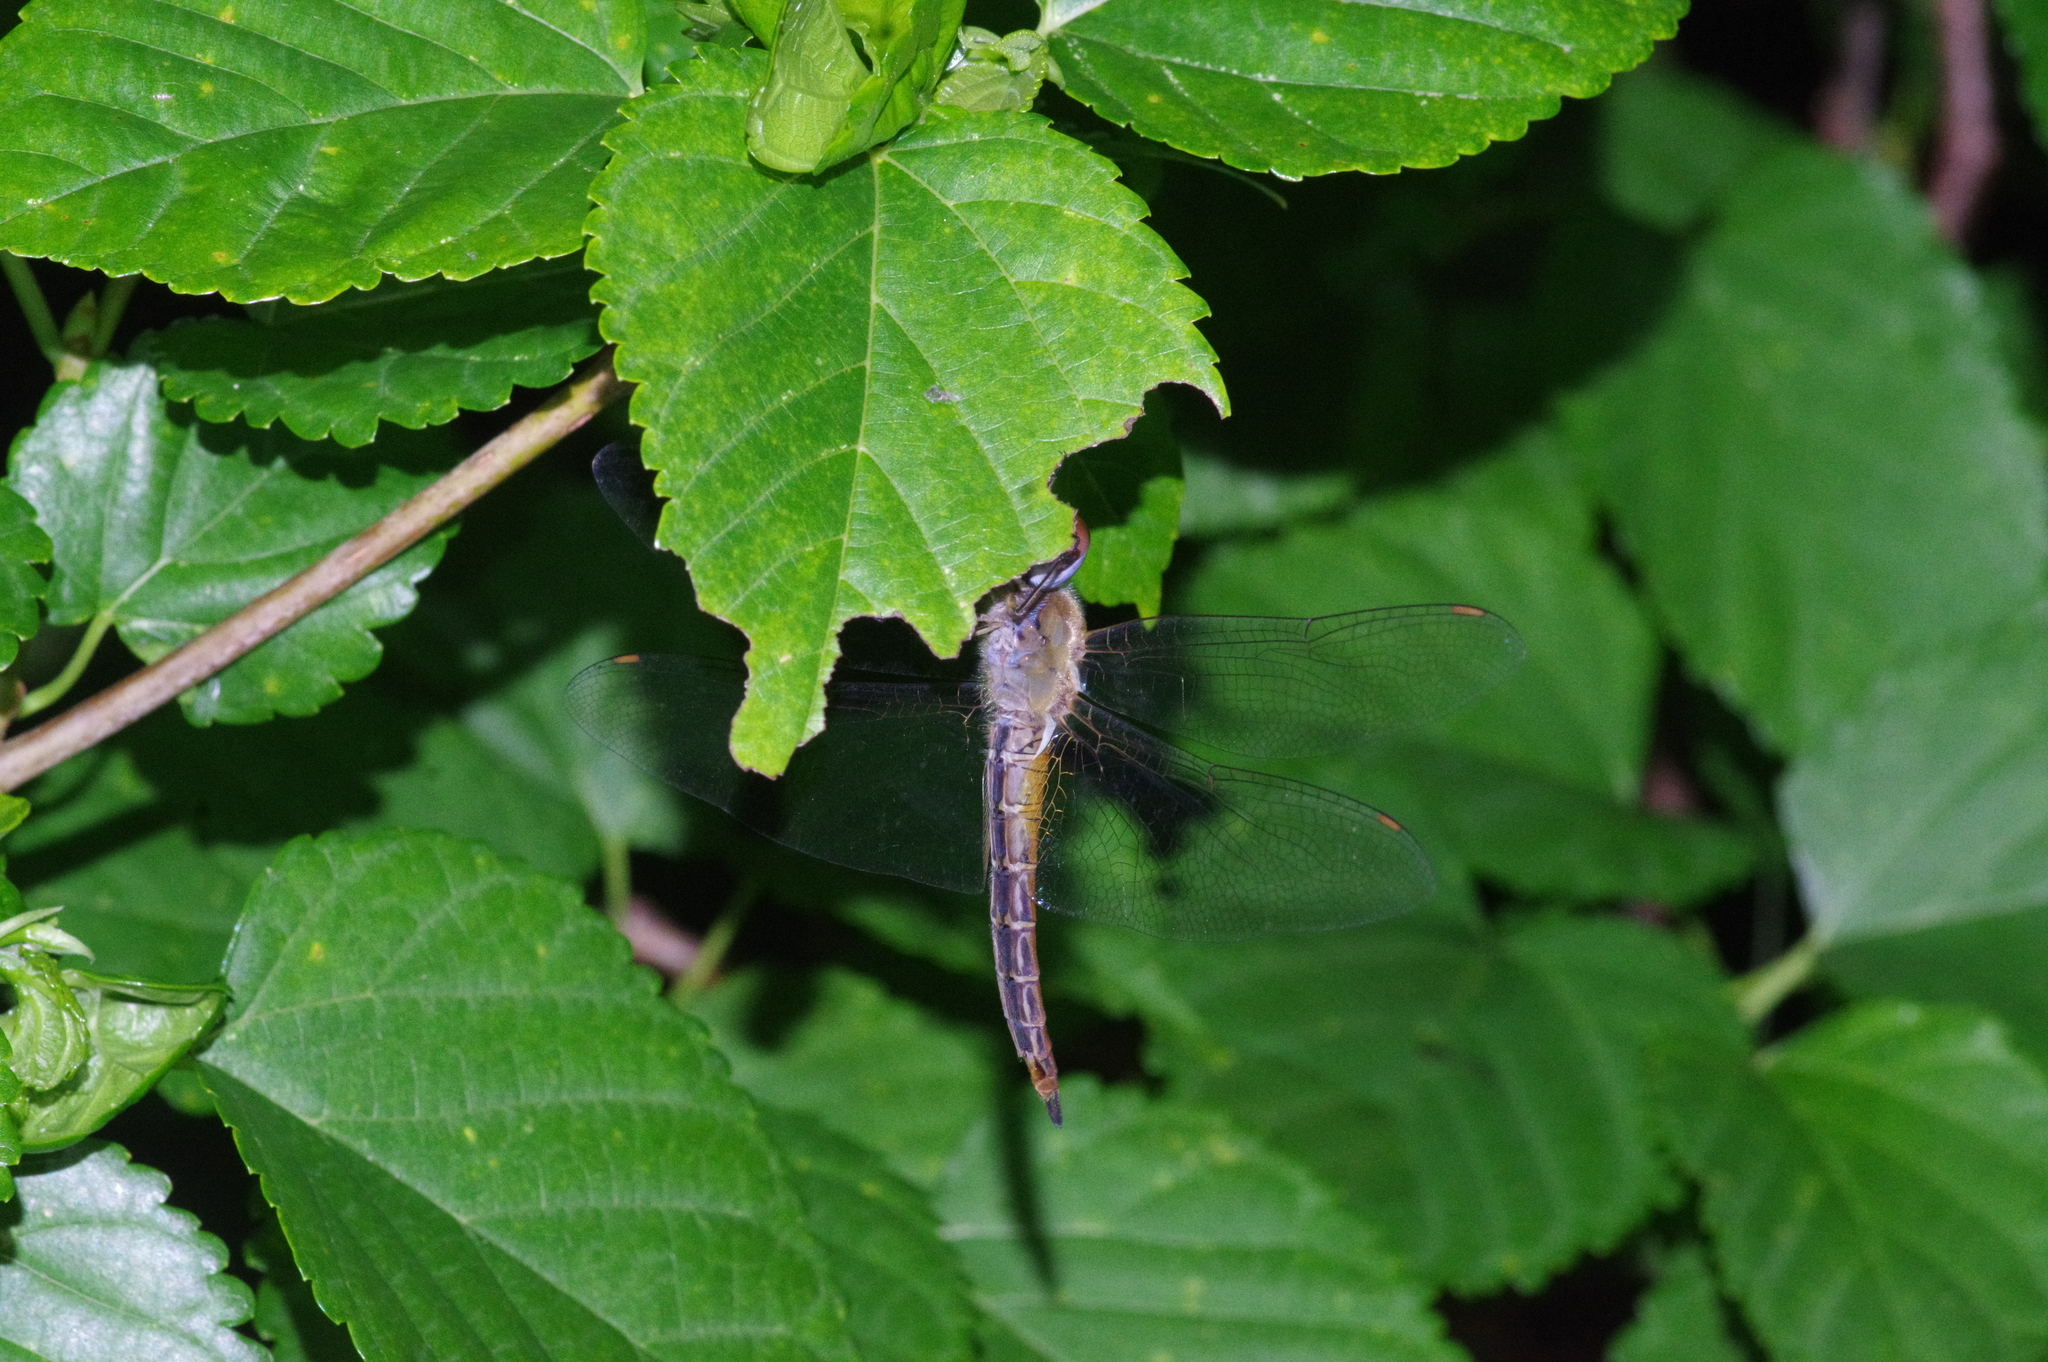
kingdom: Animalia
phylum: Arthropoda
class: Insecta
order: Odonata
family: Libellulidae
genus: Pantala
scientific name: Pantala flavescens
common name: Wandering glider
